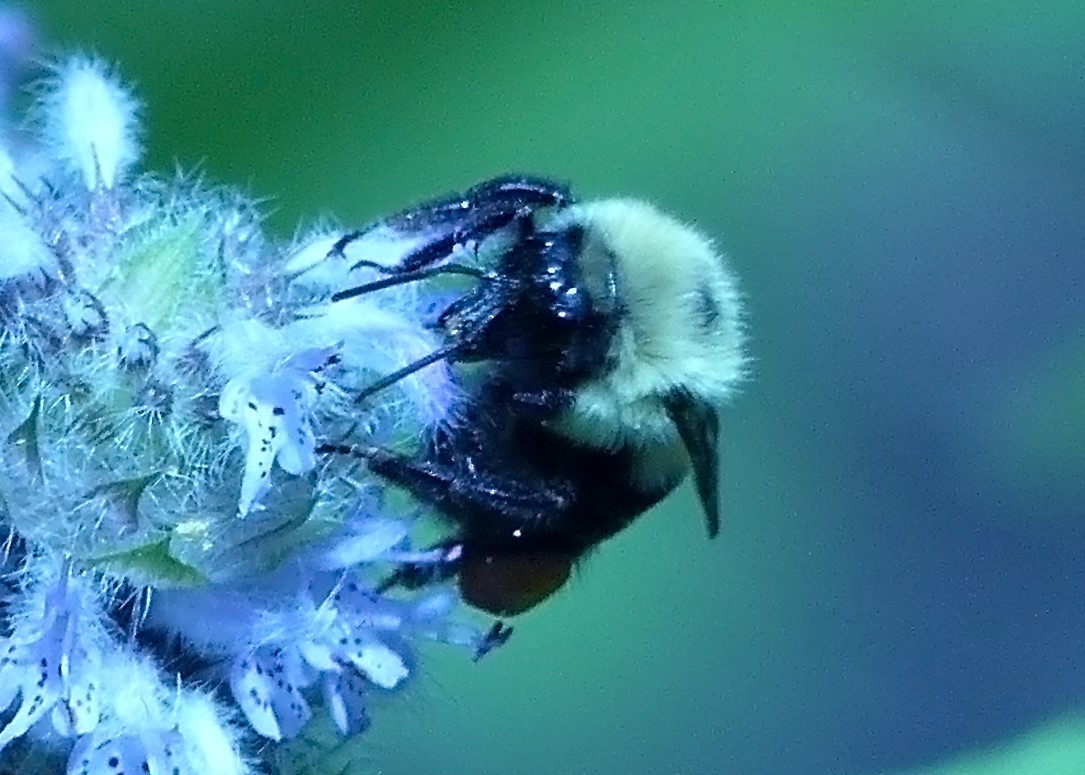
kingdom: Animalia
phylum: Arthropoda
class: Insecta
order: Hymenoptera
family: Apidae
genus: Bombus
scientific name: Bombus bimaculatus
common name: Two-spotted bumble bee
